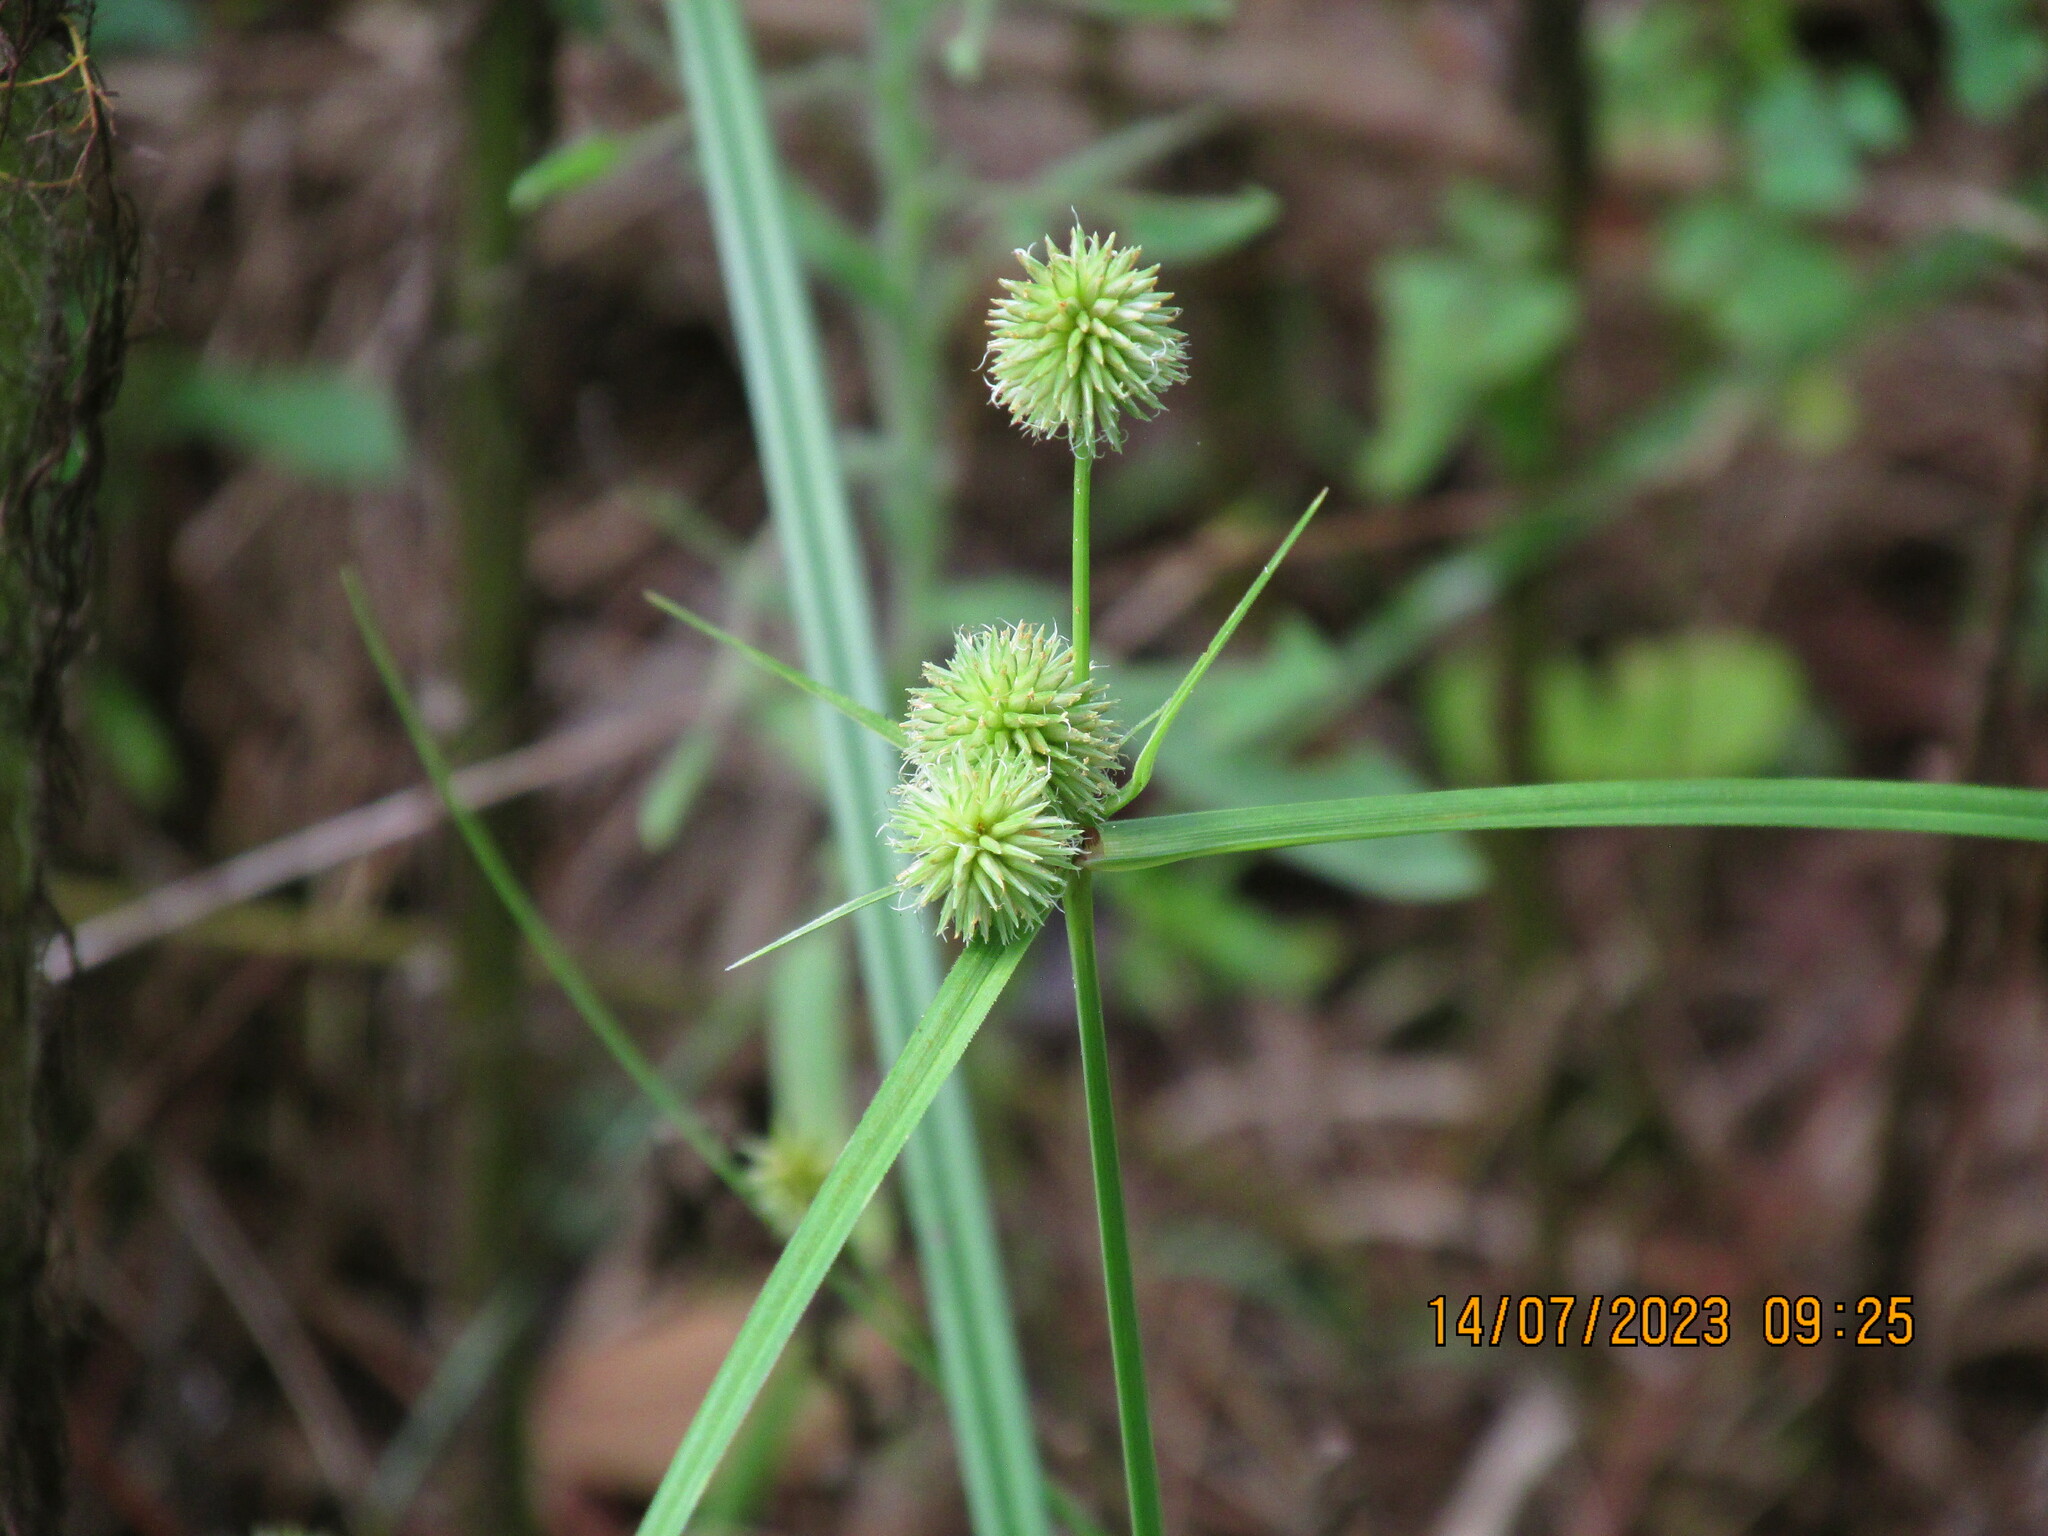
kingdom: Plantae
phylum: Tracheophyta
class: Liliopsida
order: Poales
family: Cyperaceae
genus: Cyperus
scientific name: Cyperus echinatus
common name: Teasel sedge
